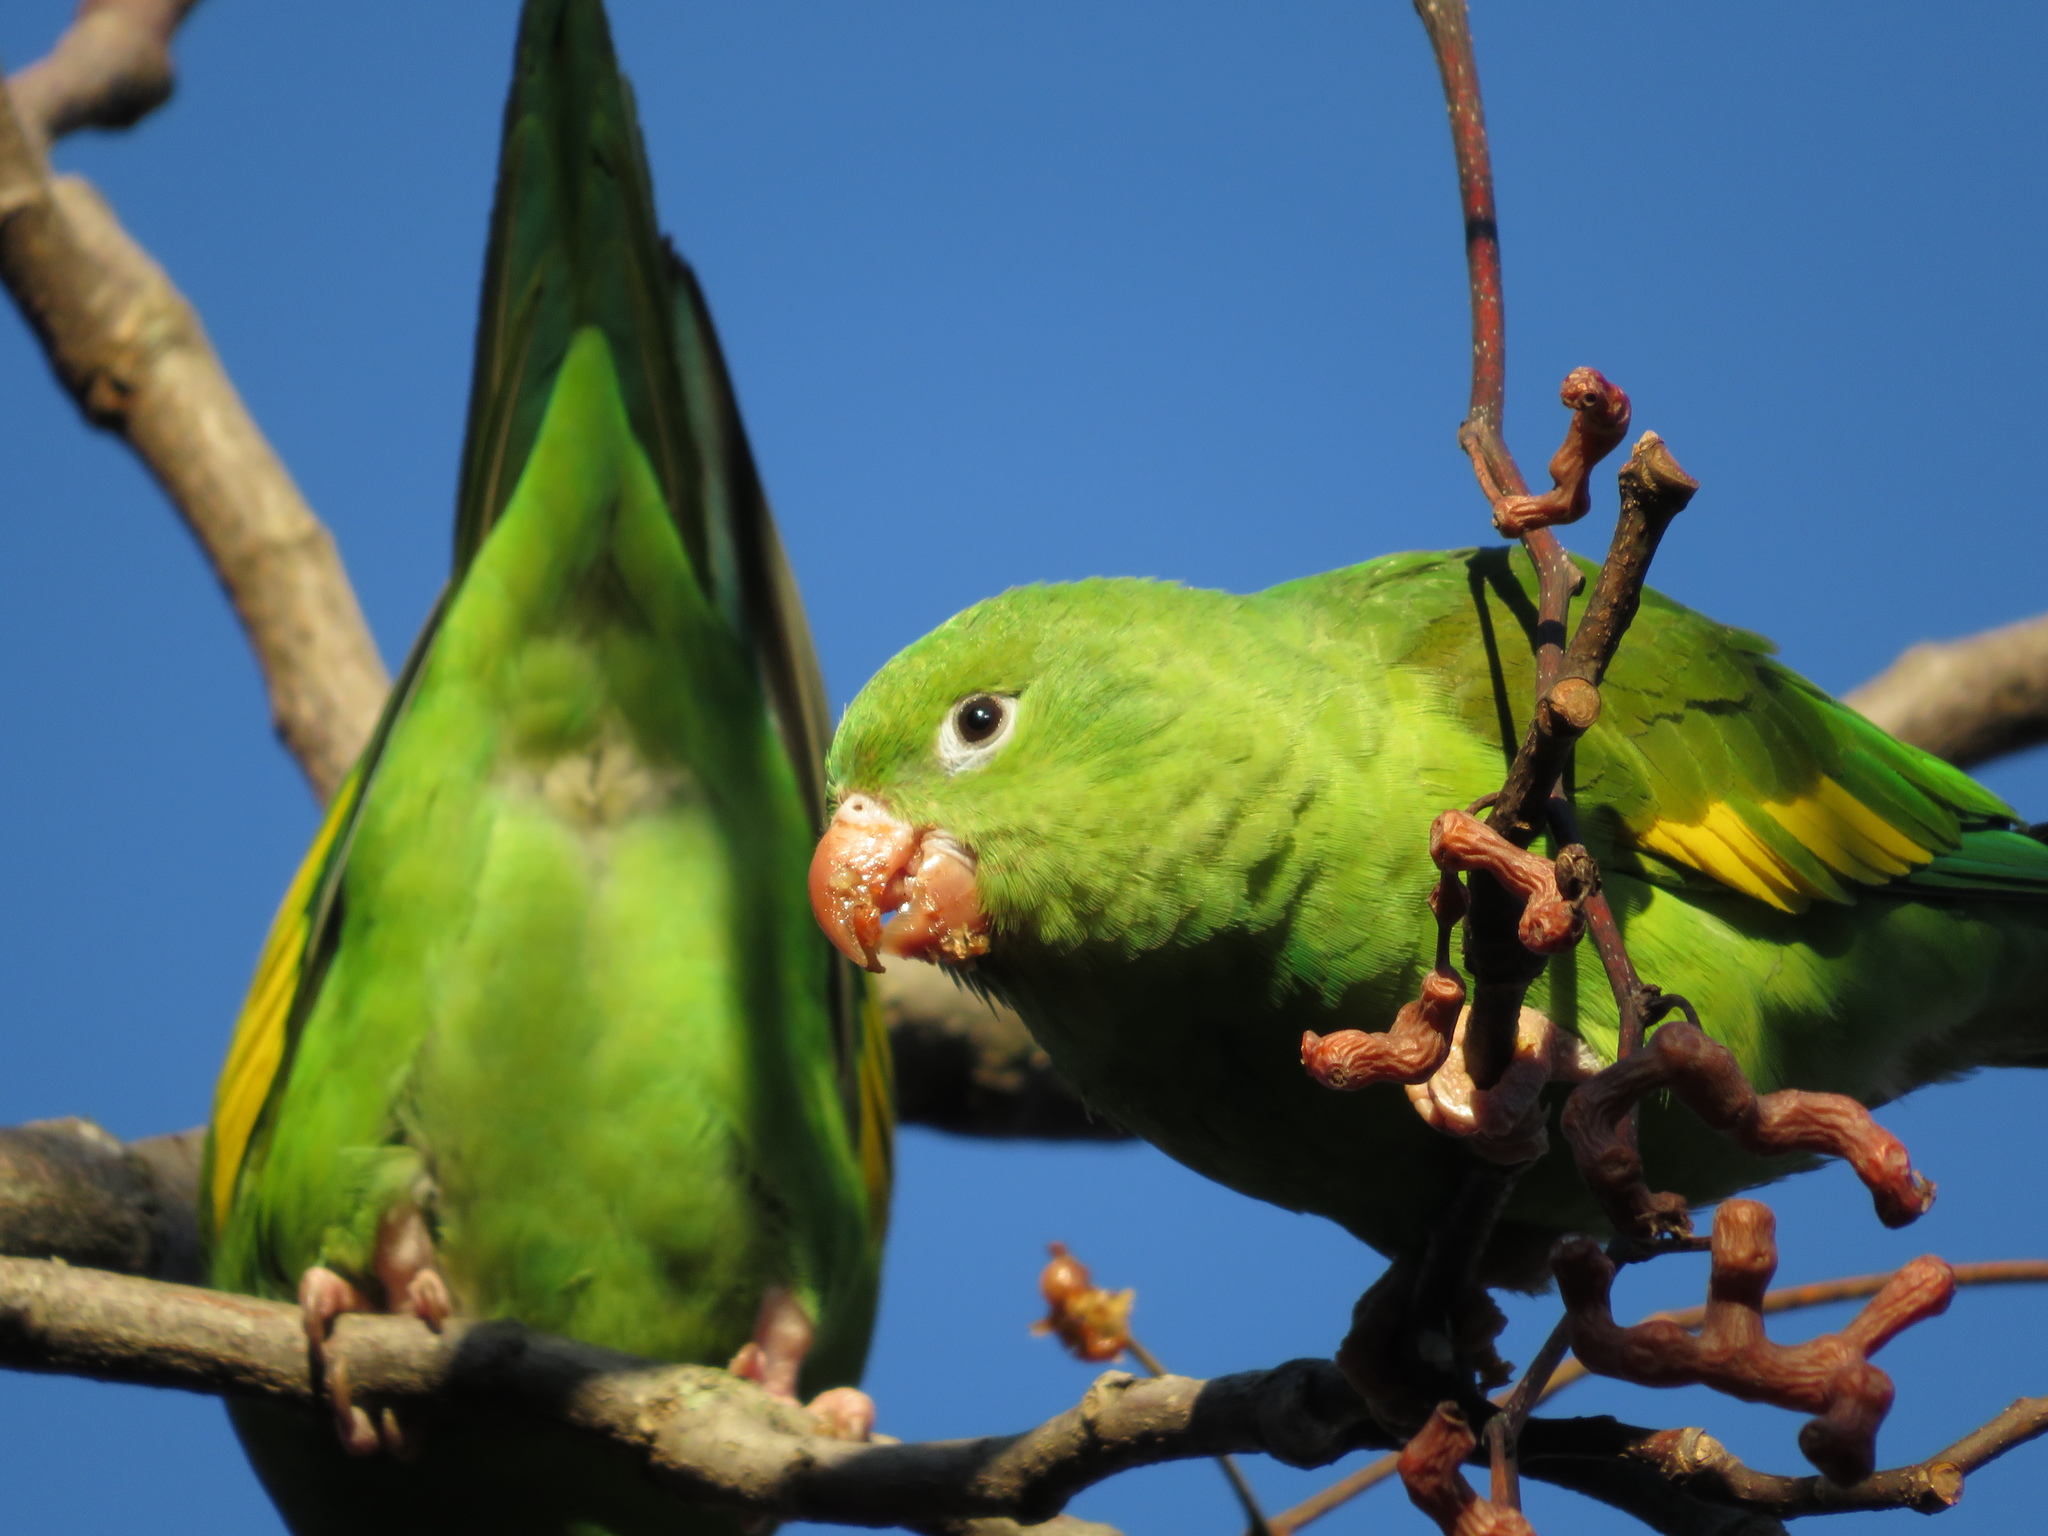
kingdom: Animalia
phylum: Chordata
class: Aves
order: Psittaciformes
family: Psittacidae
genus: Brotogeris
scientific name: Brotogeris chiriri
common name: Yellow-chevroned parakeet
